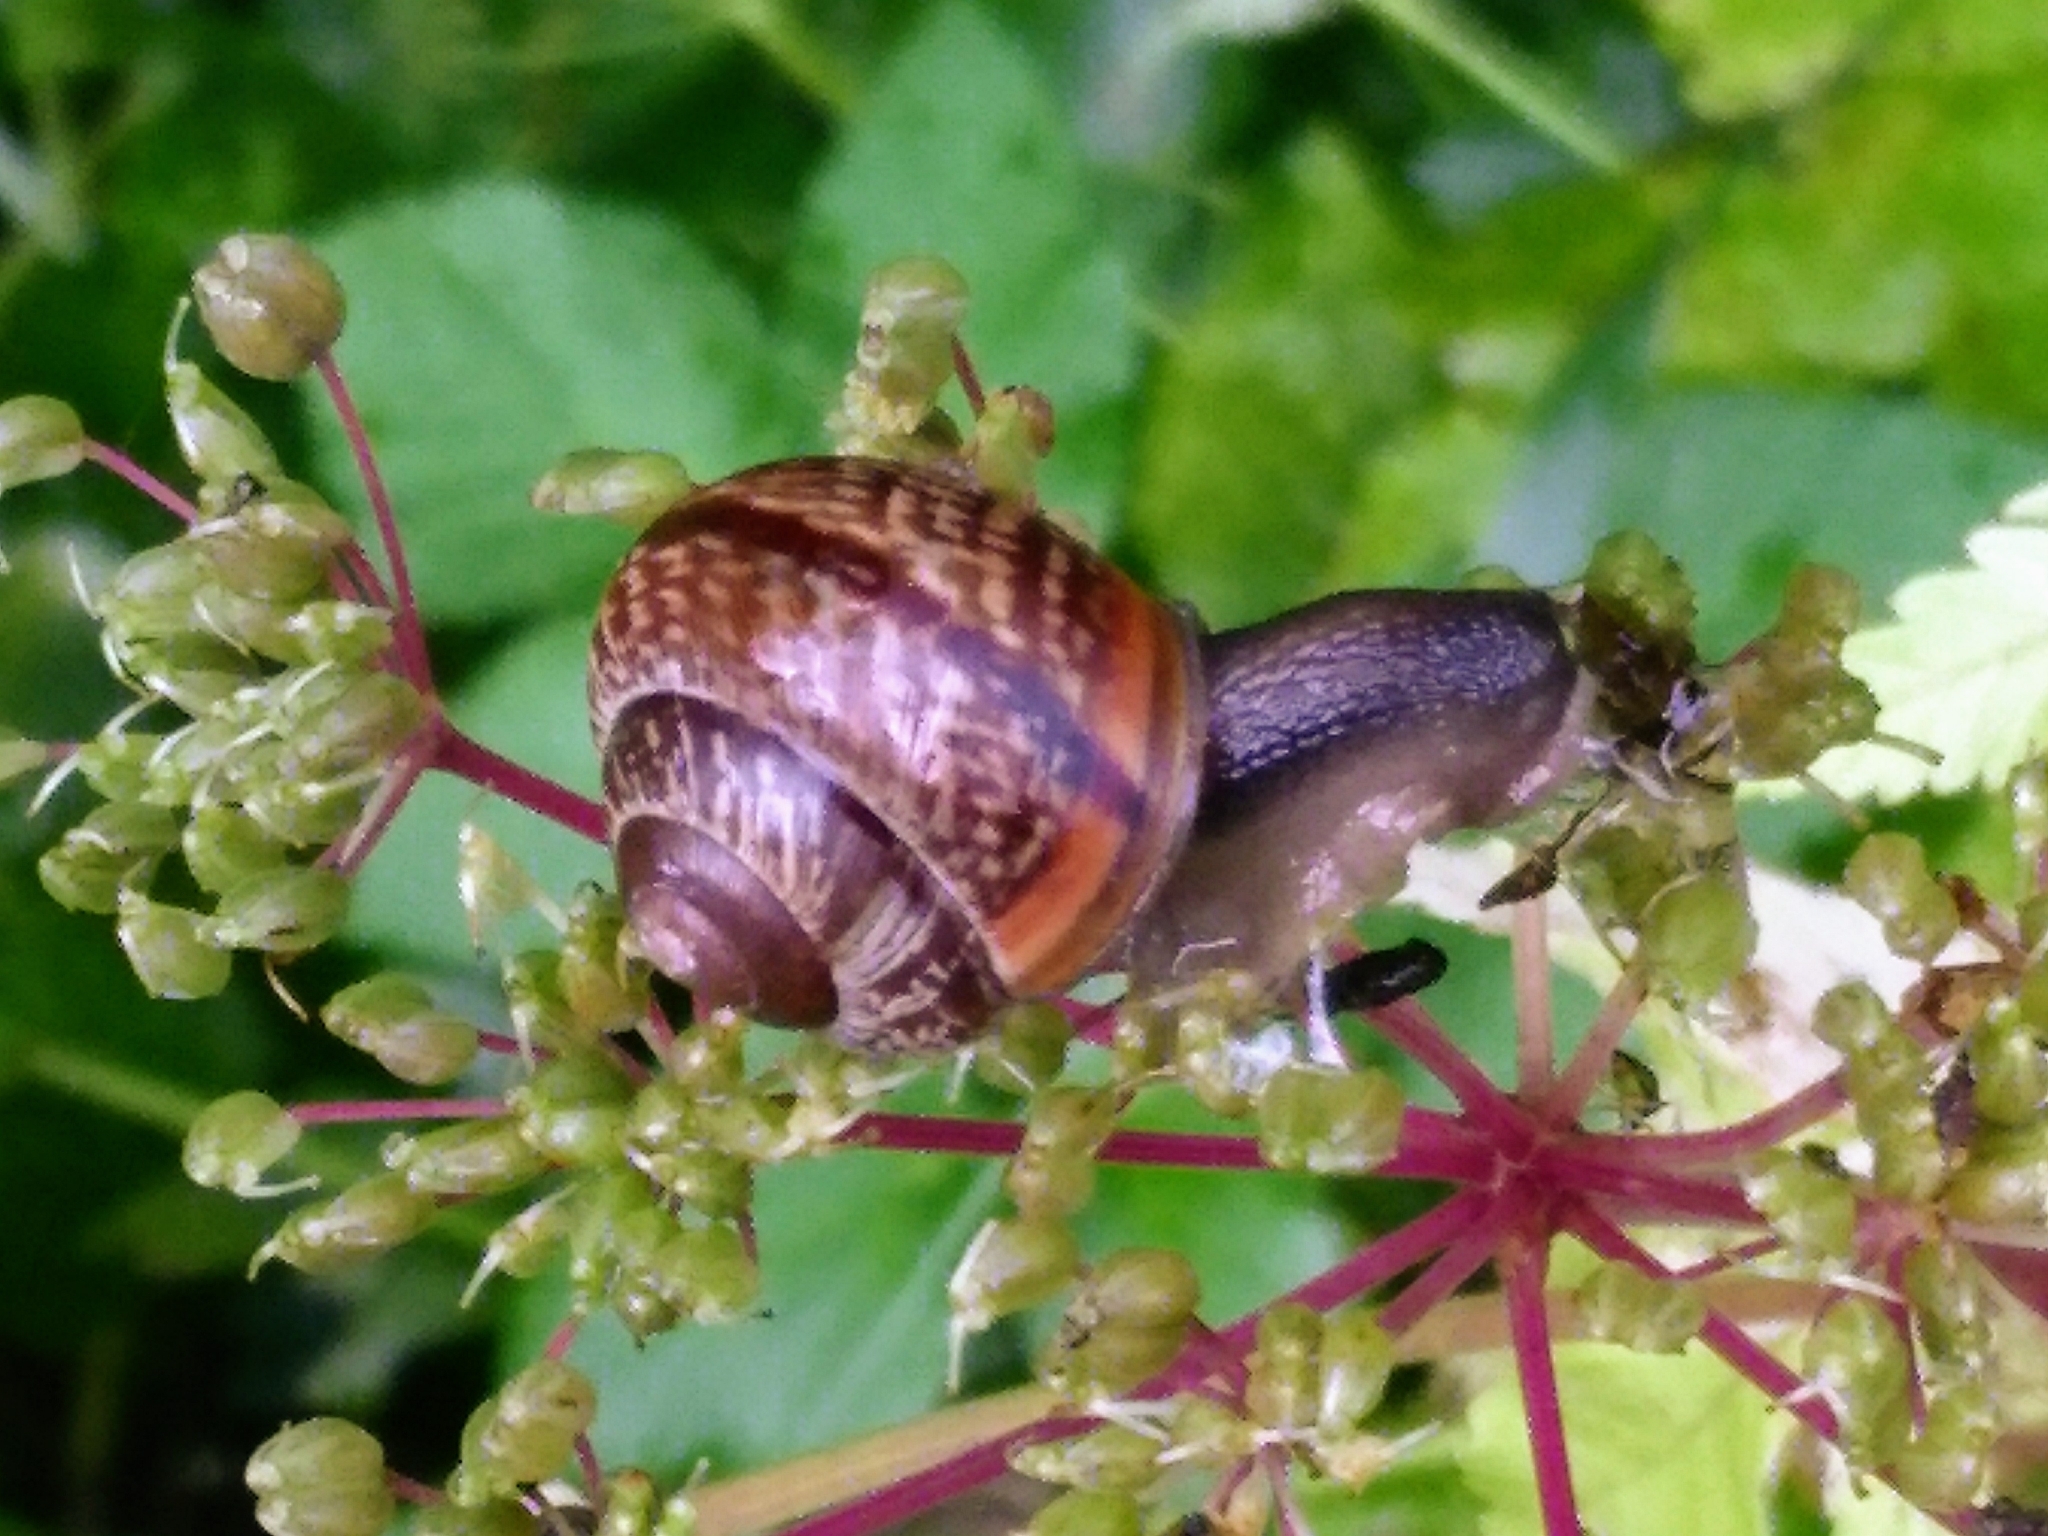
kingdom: Animalia
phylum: Mollusca
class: Gastropoda
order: Stylommatophora
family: Helicidae
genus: Arianta
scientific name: Arianta arbustorum
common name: Copse snail
